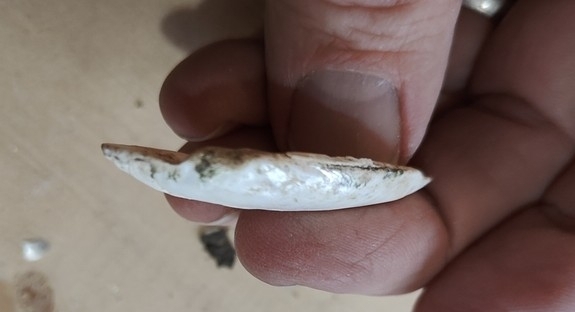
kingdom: Animalia
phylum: Mollusca
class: Bivalvia
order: Unionida
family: Unionidae
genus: Lampsilis
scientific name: Lampsilis teres
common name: Yellow sandshell
